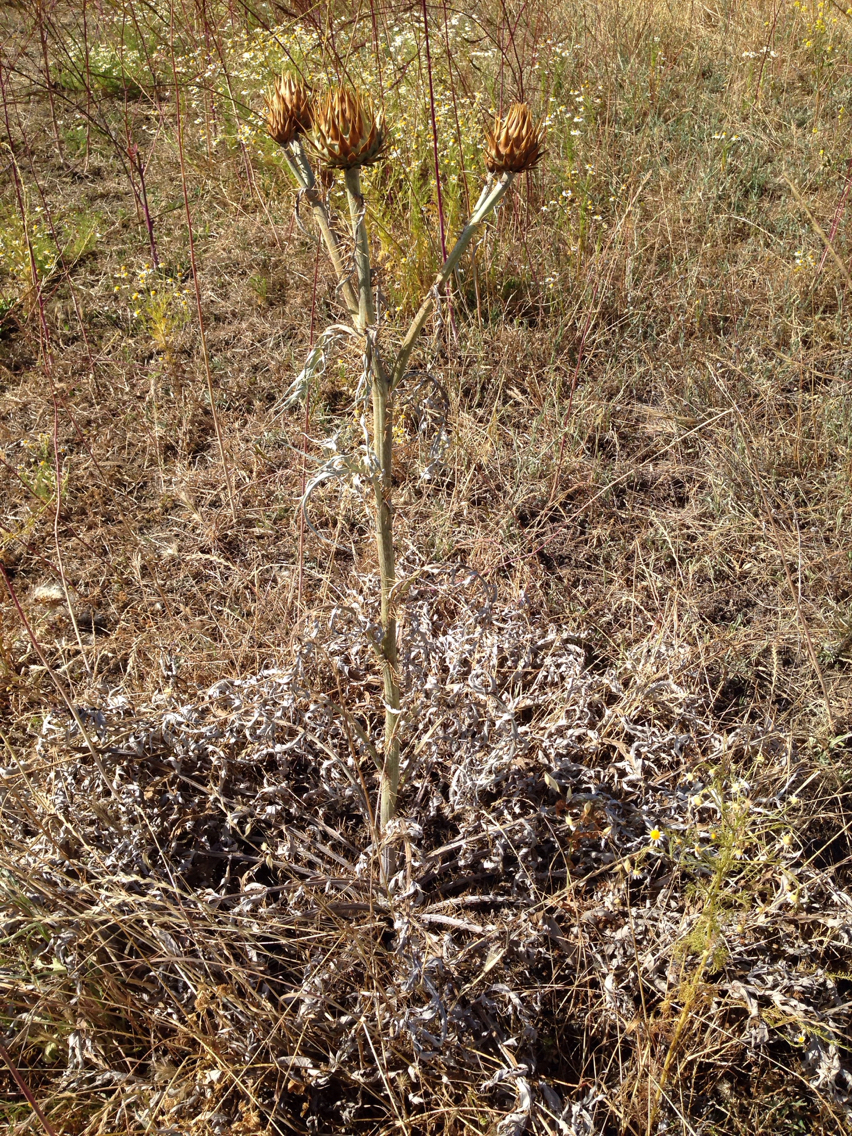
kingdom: Plantae
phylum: Tracheophyta
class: Magnoliopsida
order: Asterales
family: Asteraceae
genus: Cynara
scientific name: Cynara cardunculus
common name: Globe artichoke
